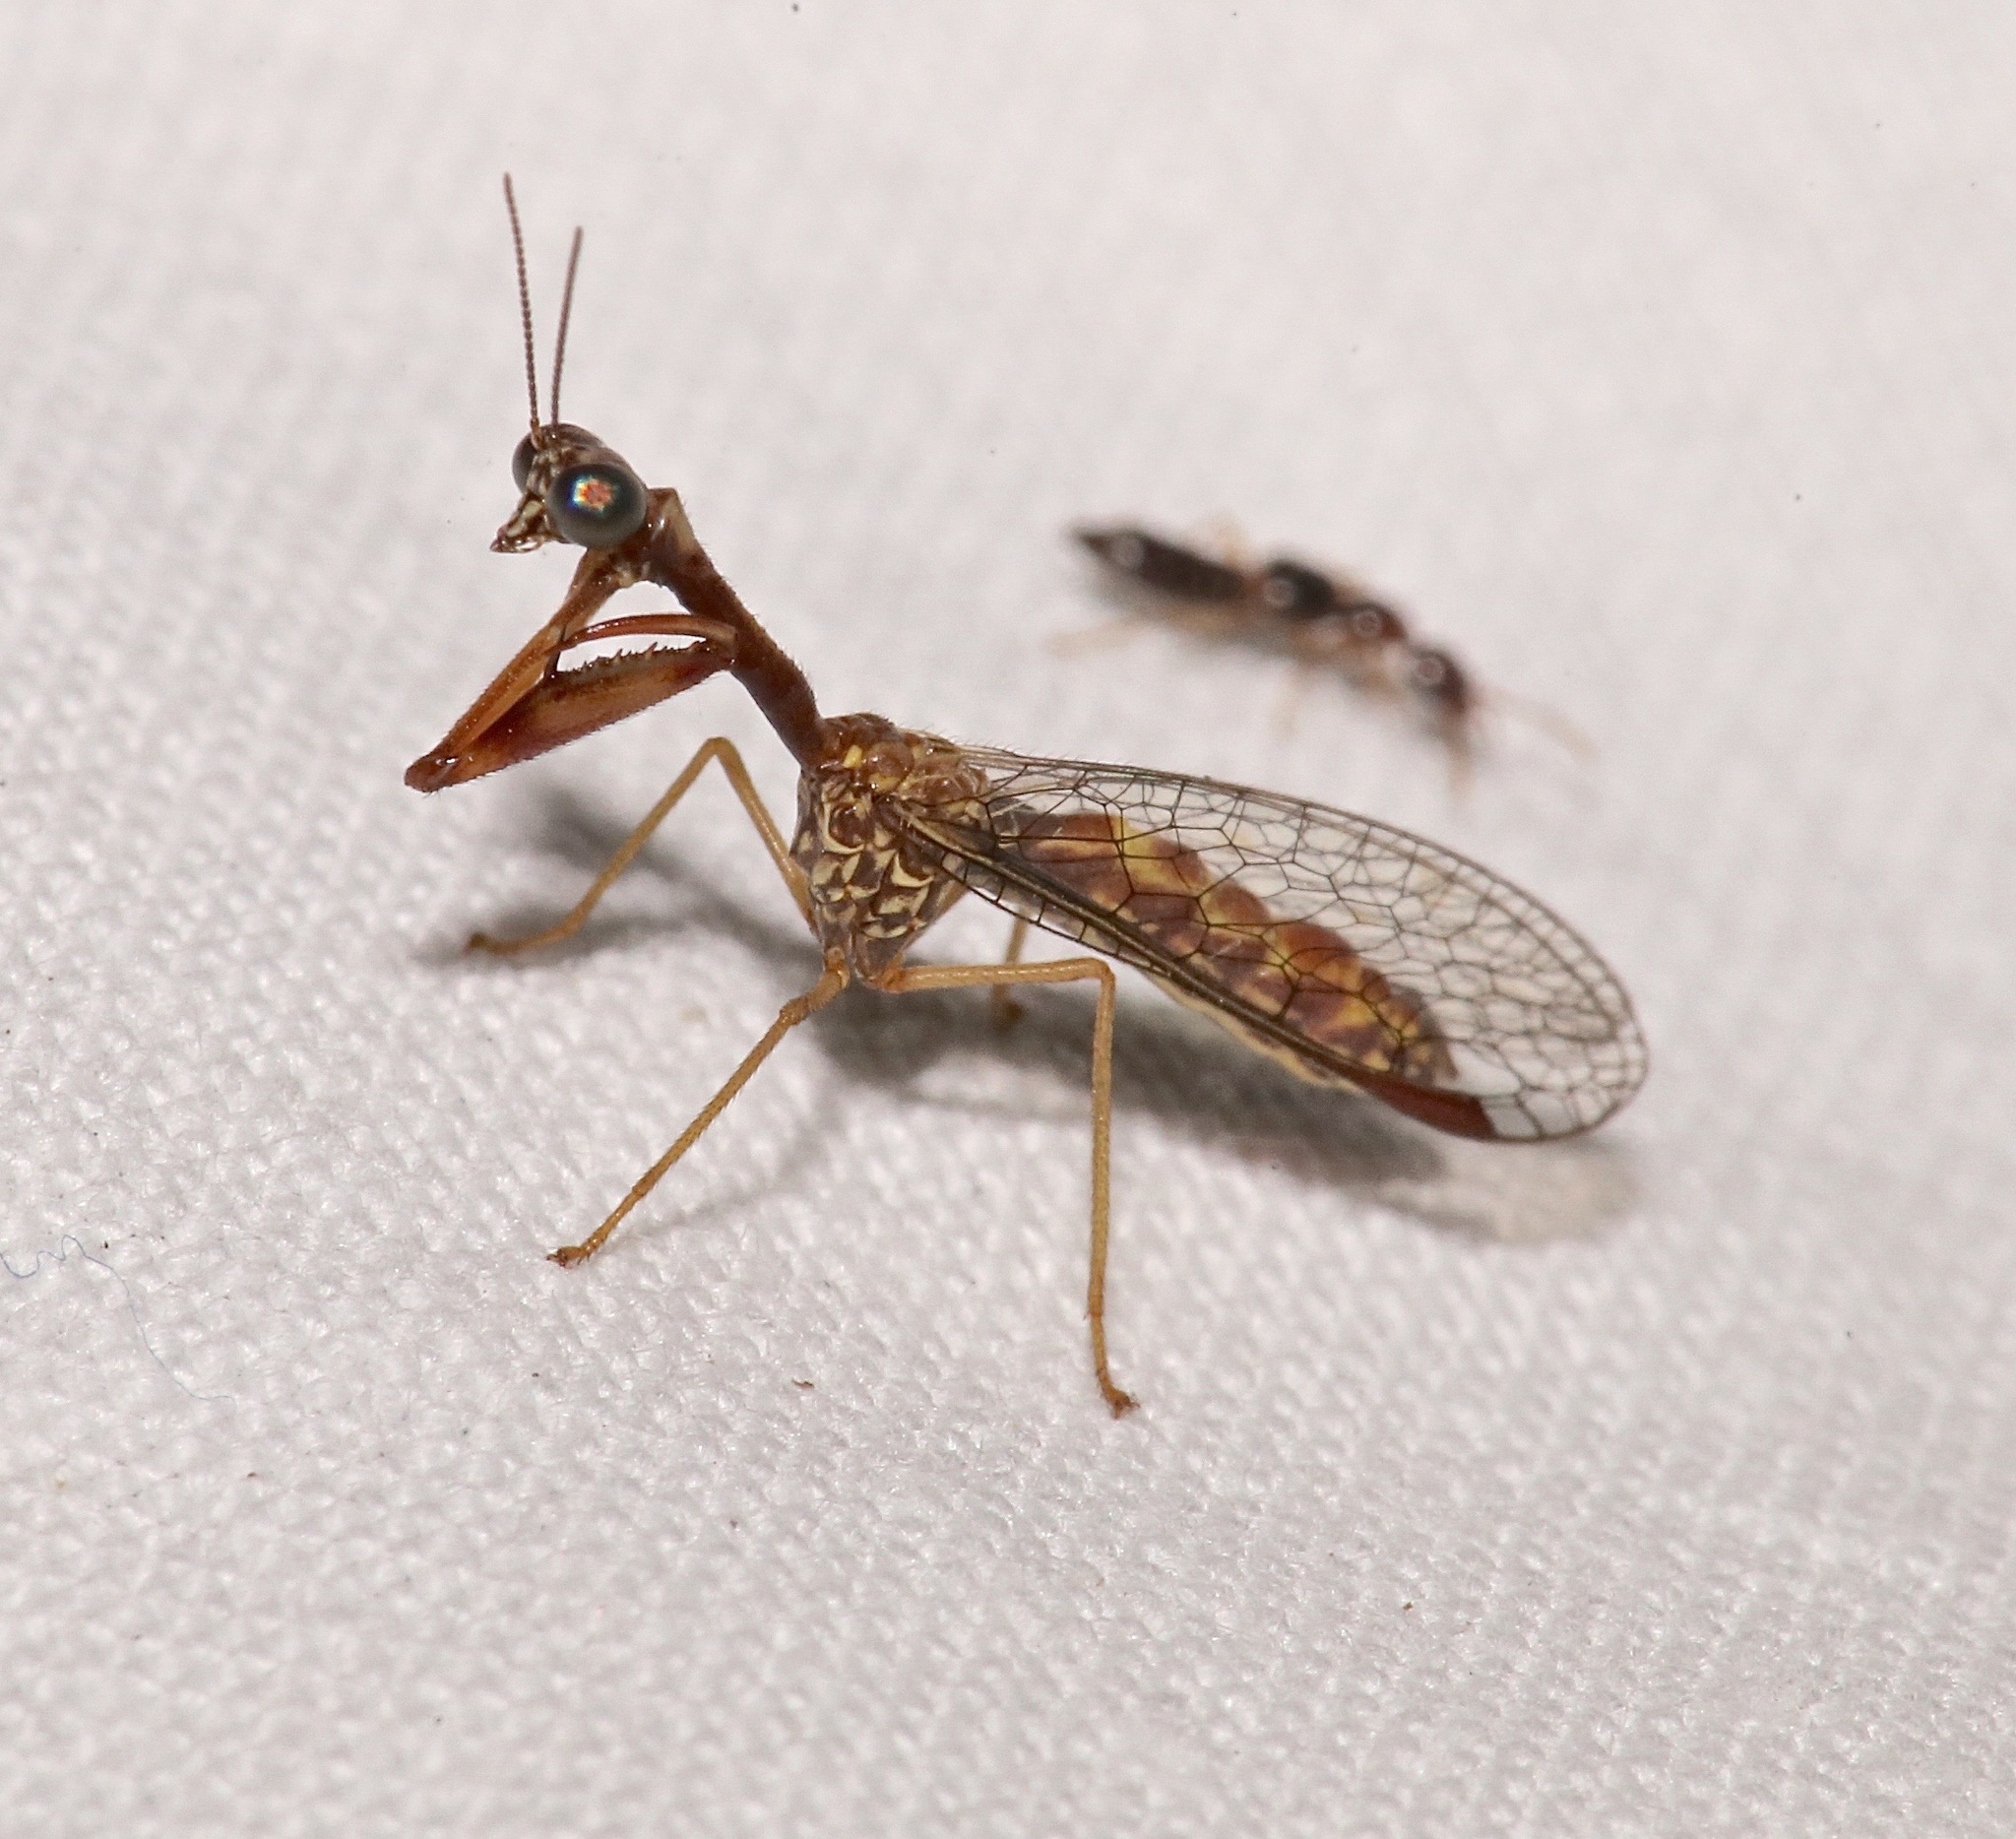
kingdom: Animalia
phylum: Arthropoda
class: Insecta
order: Neuroptera
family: Mantispidae
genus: Leptomantispa
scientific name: Leptomantispa pulchella
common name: Stevens's mantidfly
